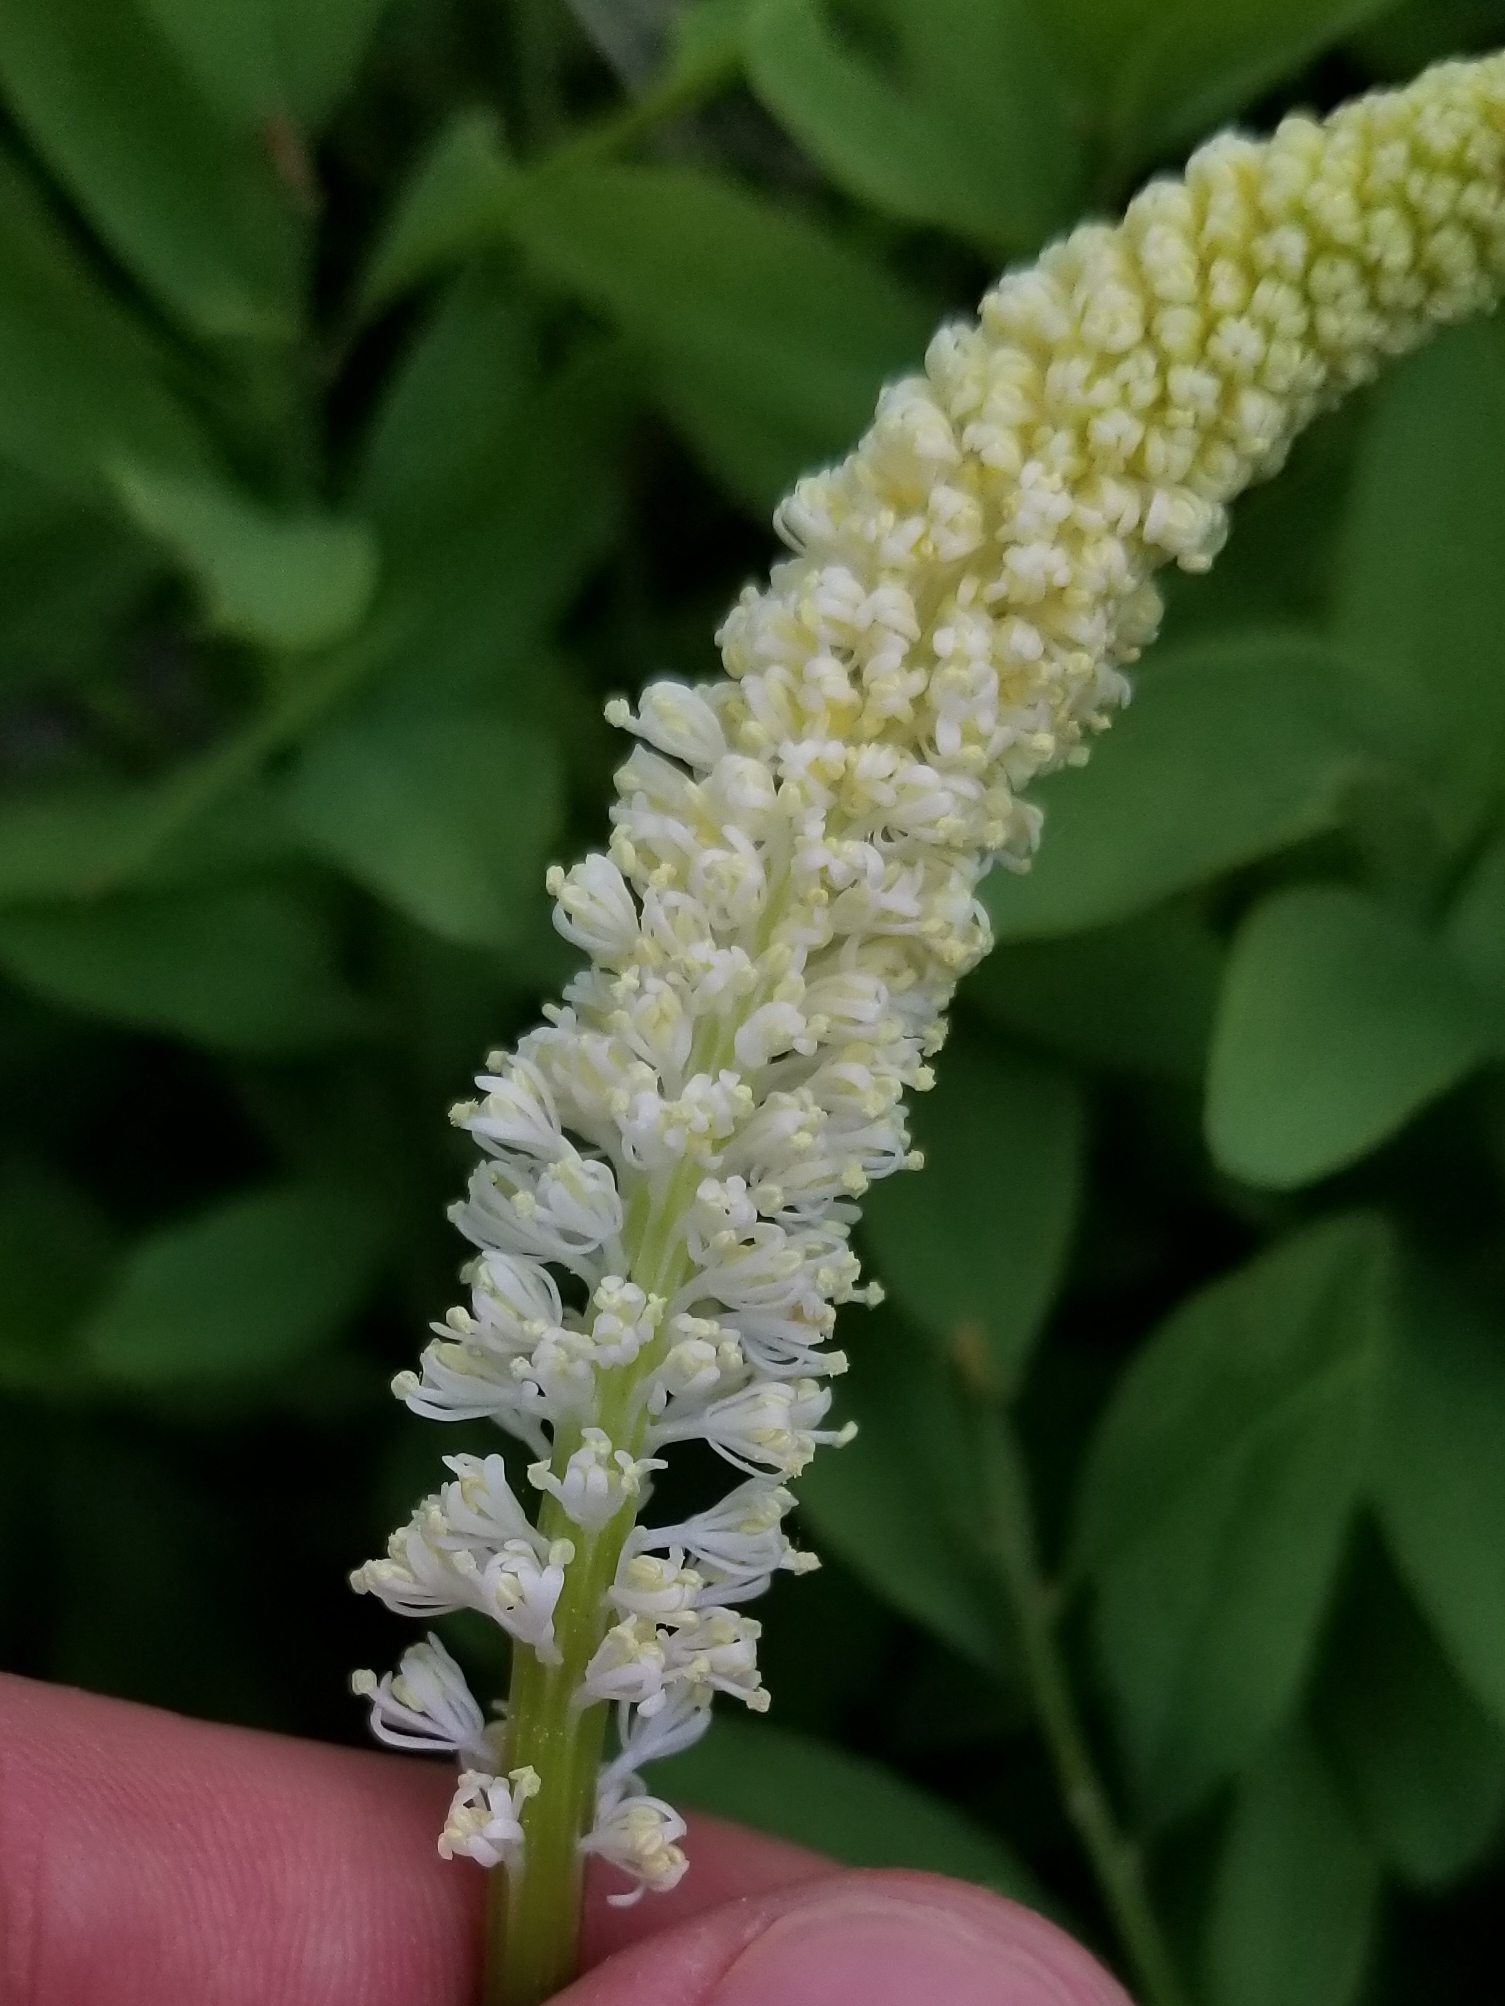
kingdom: Plantae
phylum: Tracheophyta
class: Liliopsida
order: Liliales
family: Melanthiaceae
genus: Chamaelirium
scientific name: Chamaelirium luteum
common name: Fairy-wand
